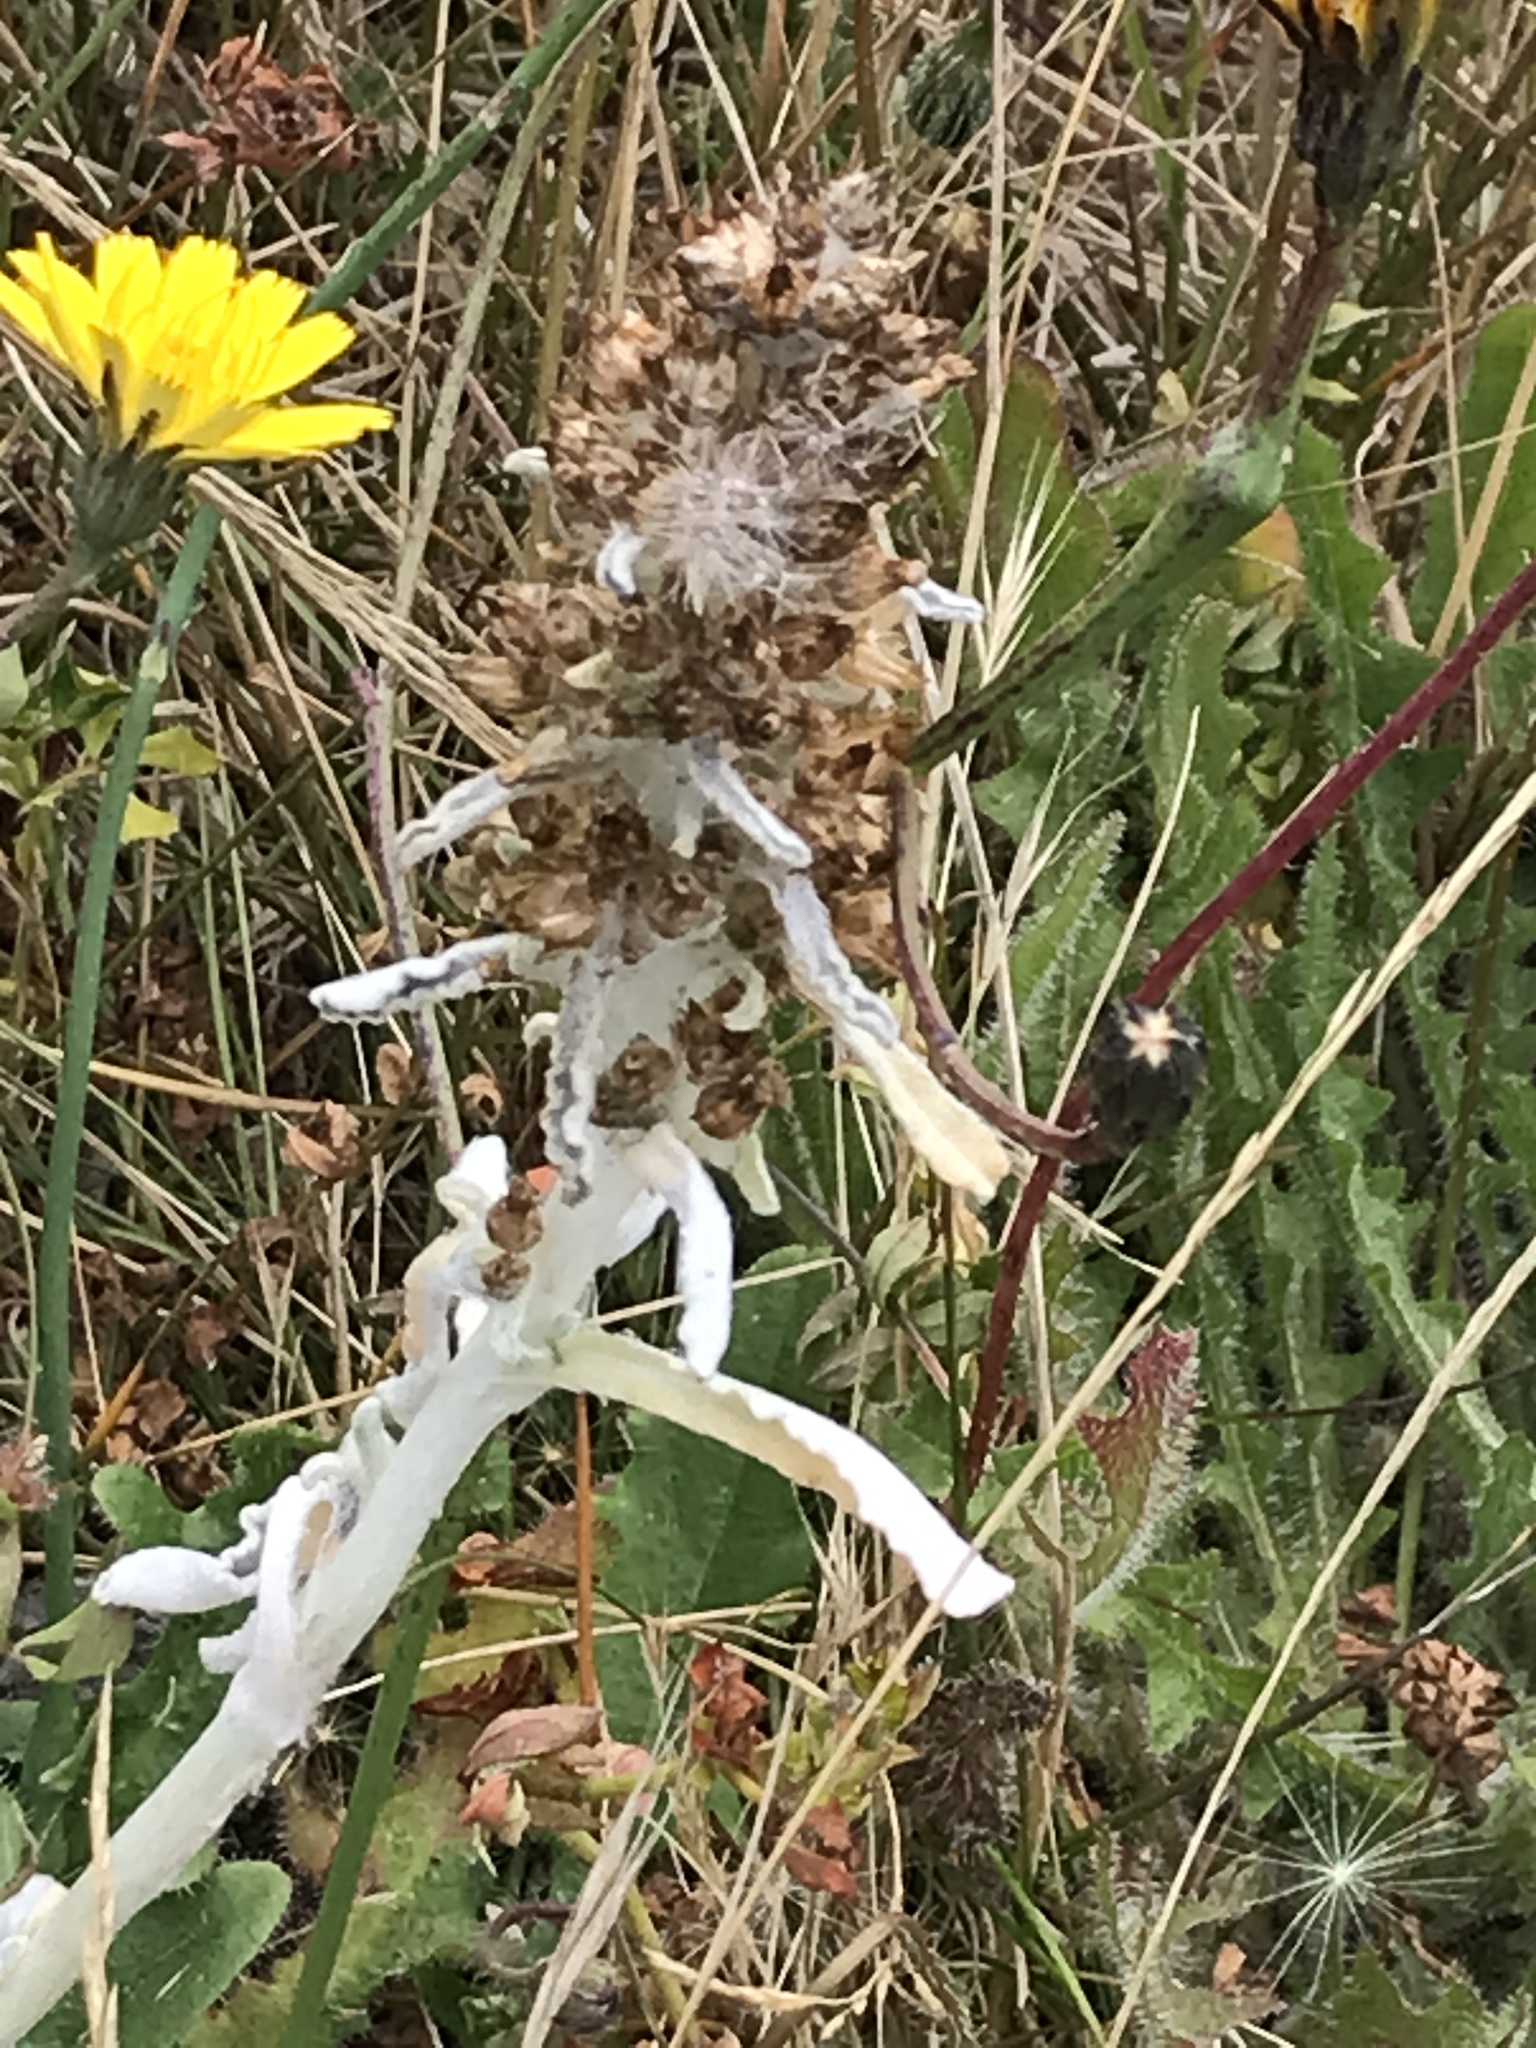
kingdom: Plantae
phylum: Tracheophyta
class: Magnoliopsida
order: Asterales
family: Asteraceae
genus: Gamochaeta
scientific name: Gamochaeta ustulata
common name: Pacific cudweed
